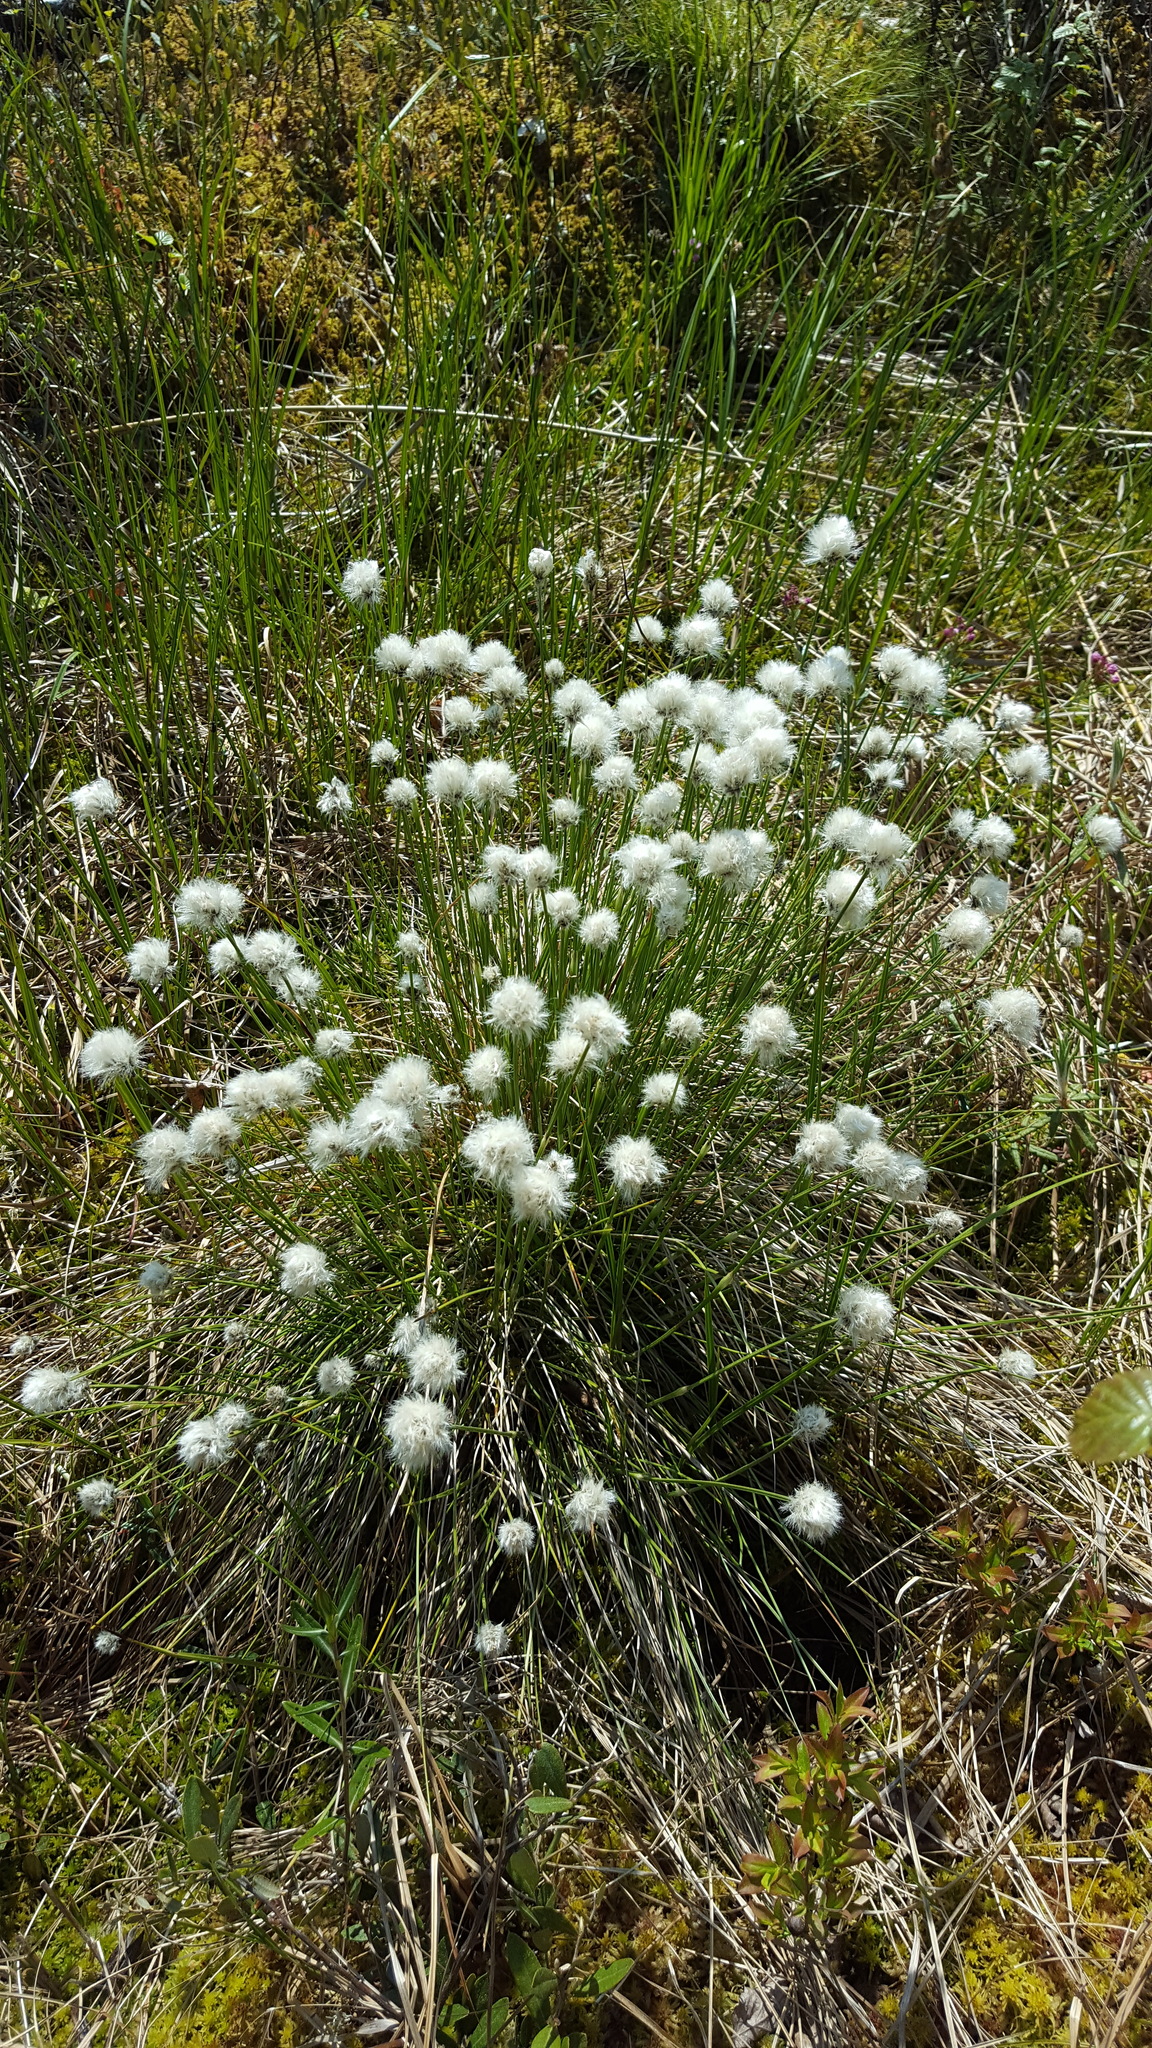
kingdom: Plantae
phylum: Tracheophyta
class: Liliopsida
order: Poales
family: Cyperaceae
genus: Eriophorum
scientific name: Eriophorum vaginatum
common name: Hare's-tail cottongrass
